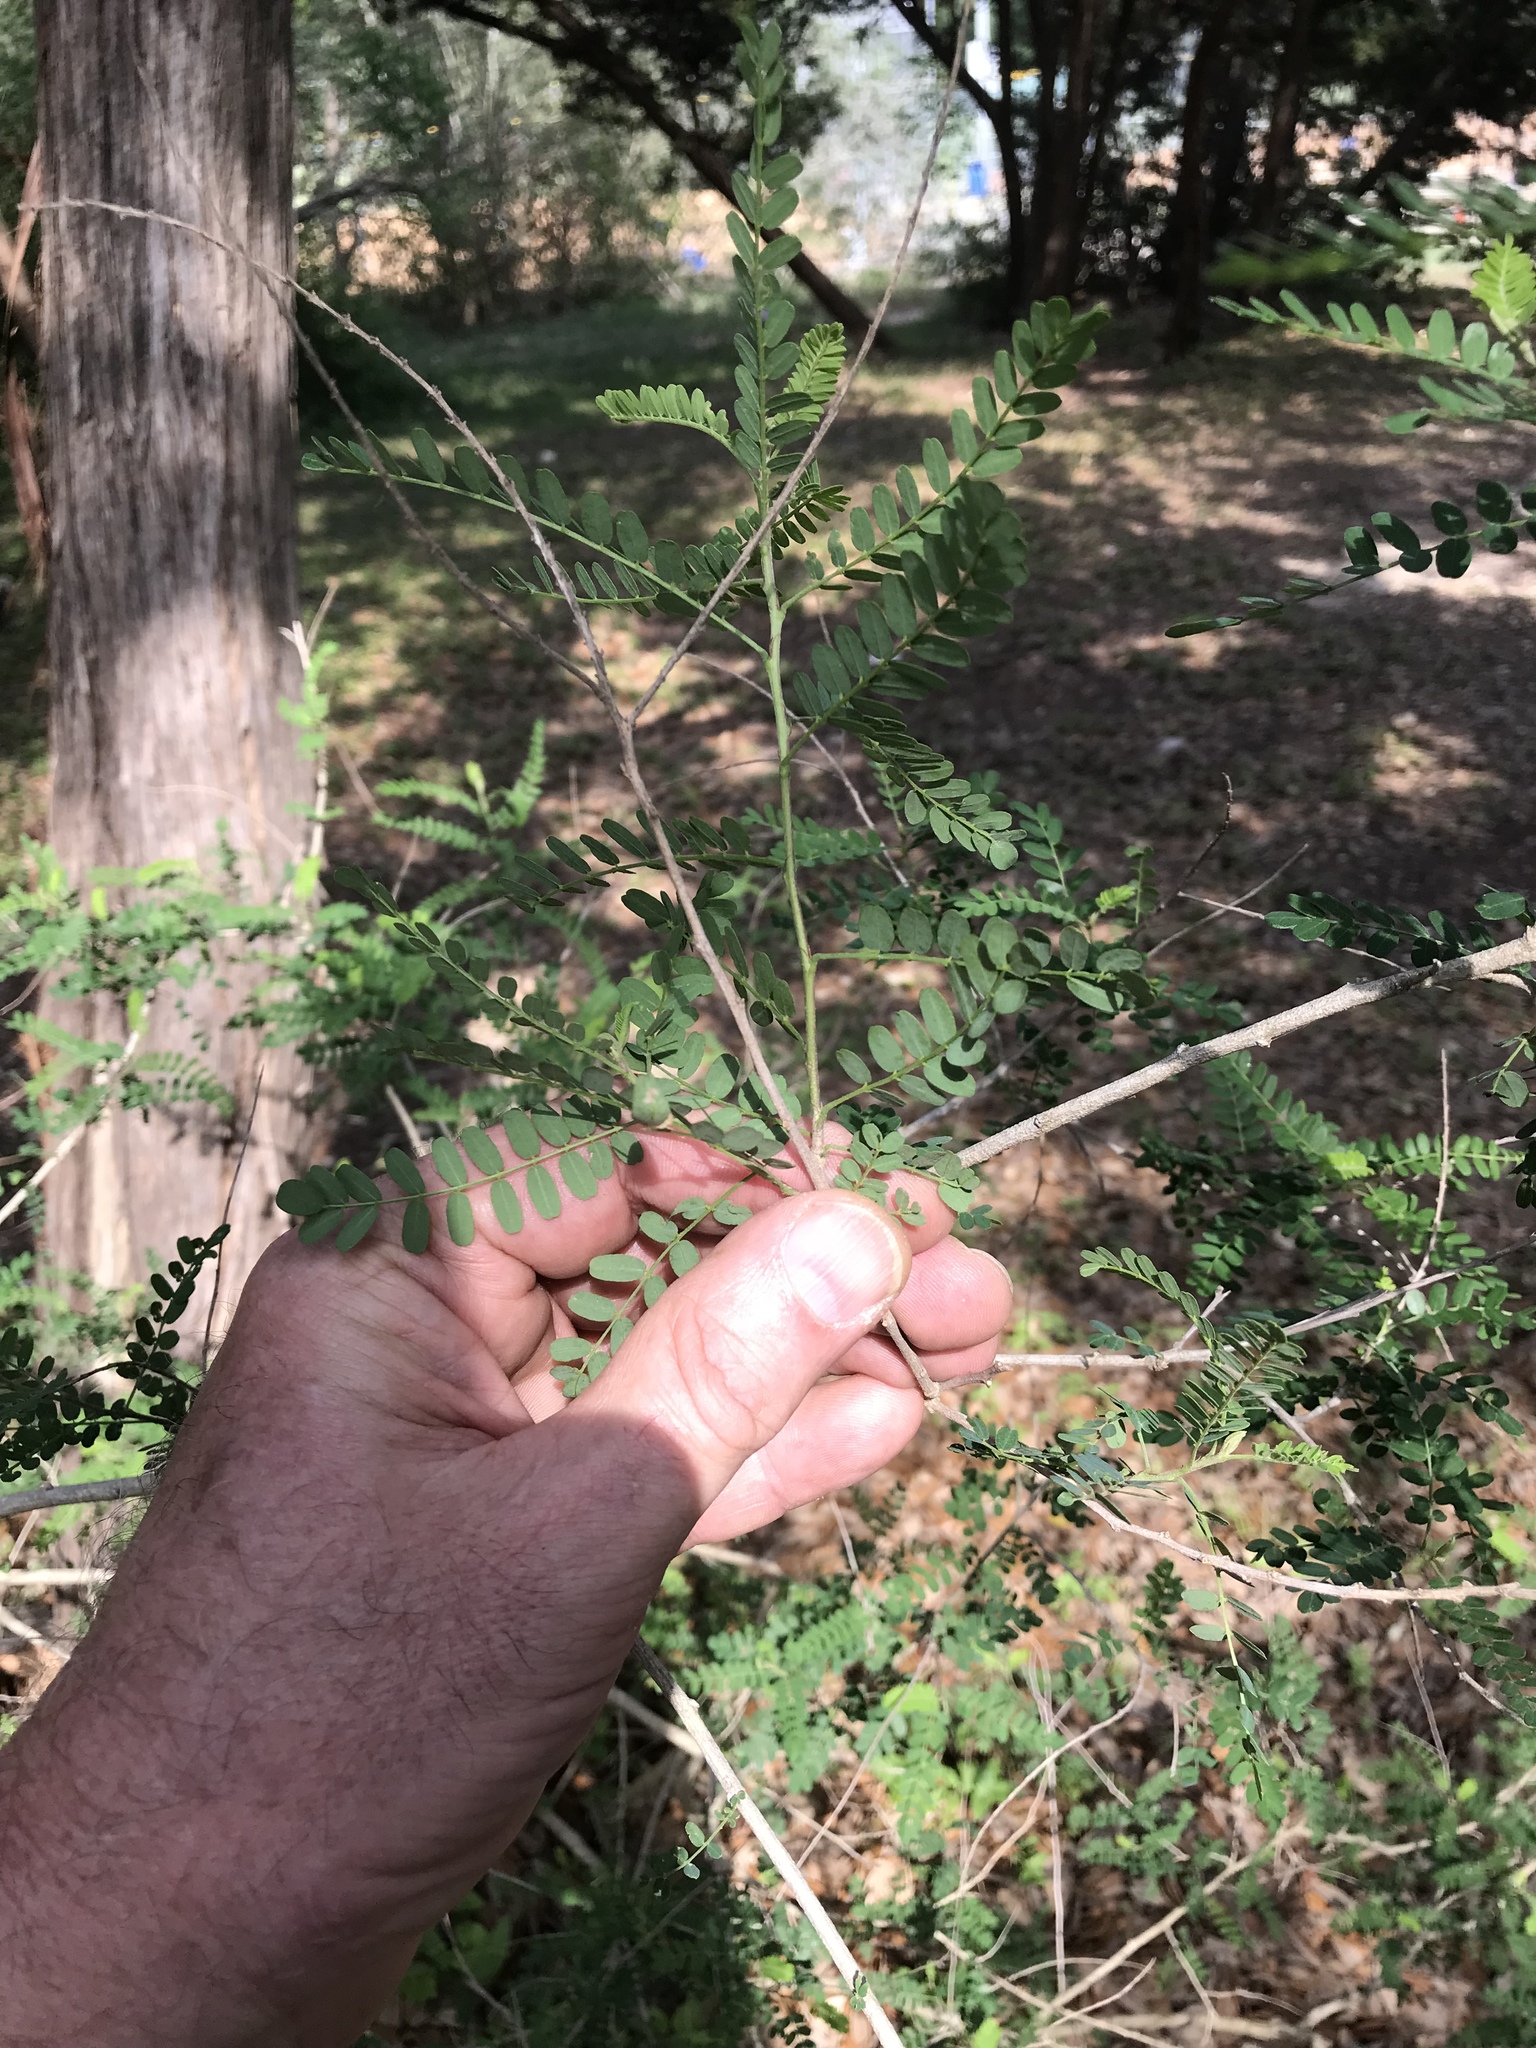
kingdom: Plantae
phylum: Tracheophyta
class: Magnoliopsida
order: Fabales
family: Fabaceae
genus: Eysenhardtia
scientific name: Eysenhardtia texana
